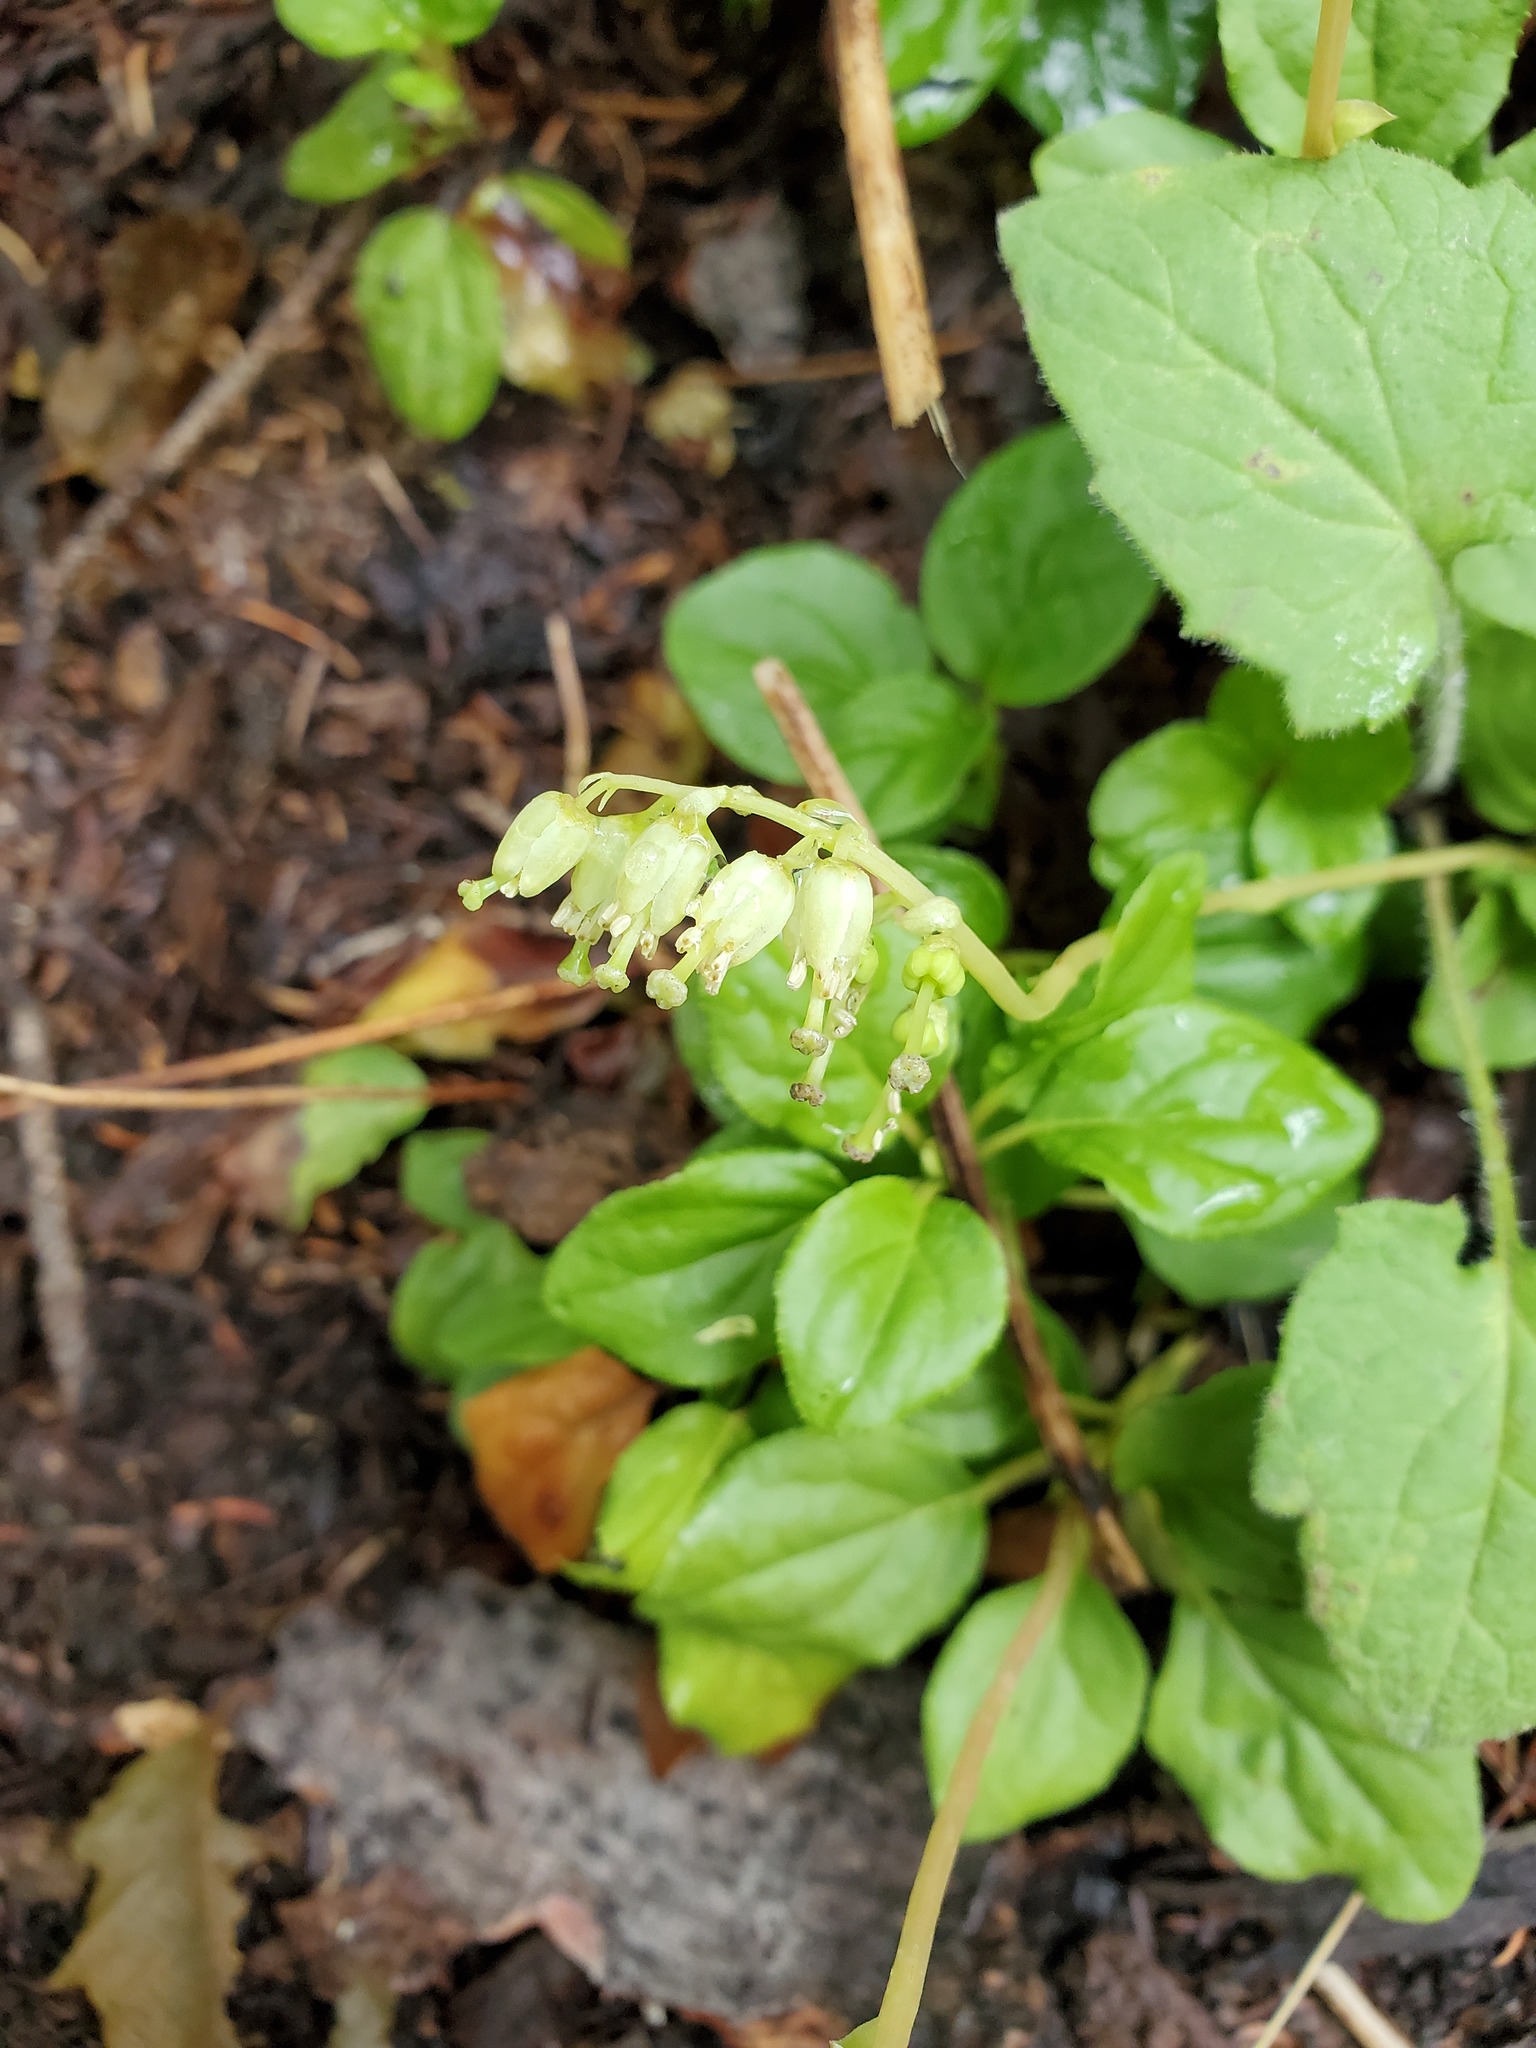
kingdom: Plantae
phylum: Tracheophyta
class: Magnoliopsida
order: Ericales
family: Ericaceae
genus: Orthilia
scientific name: Orthilia secunda
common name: One-sided orthilia
